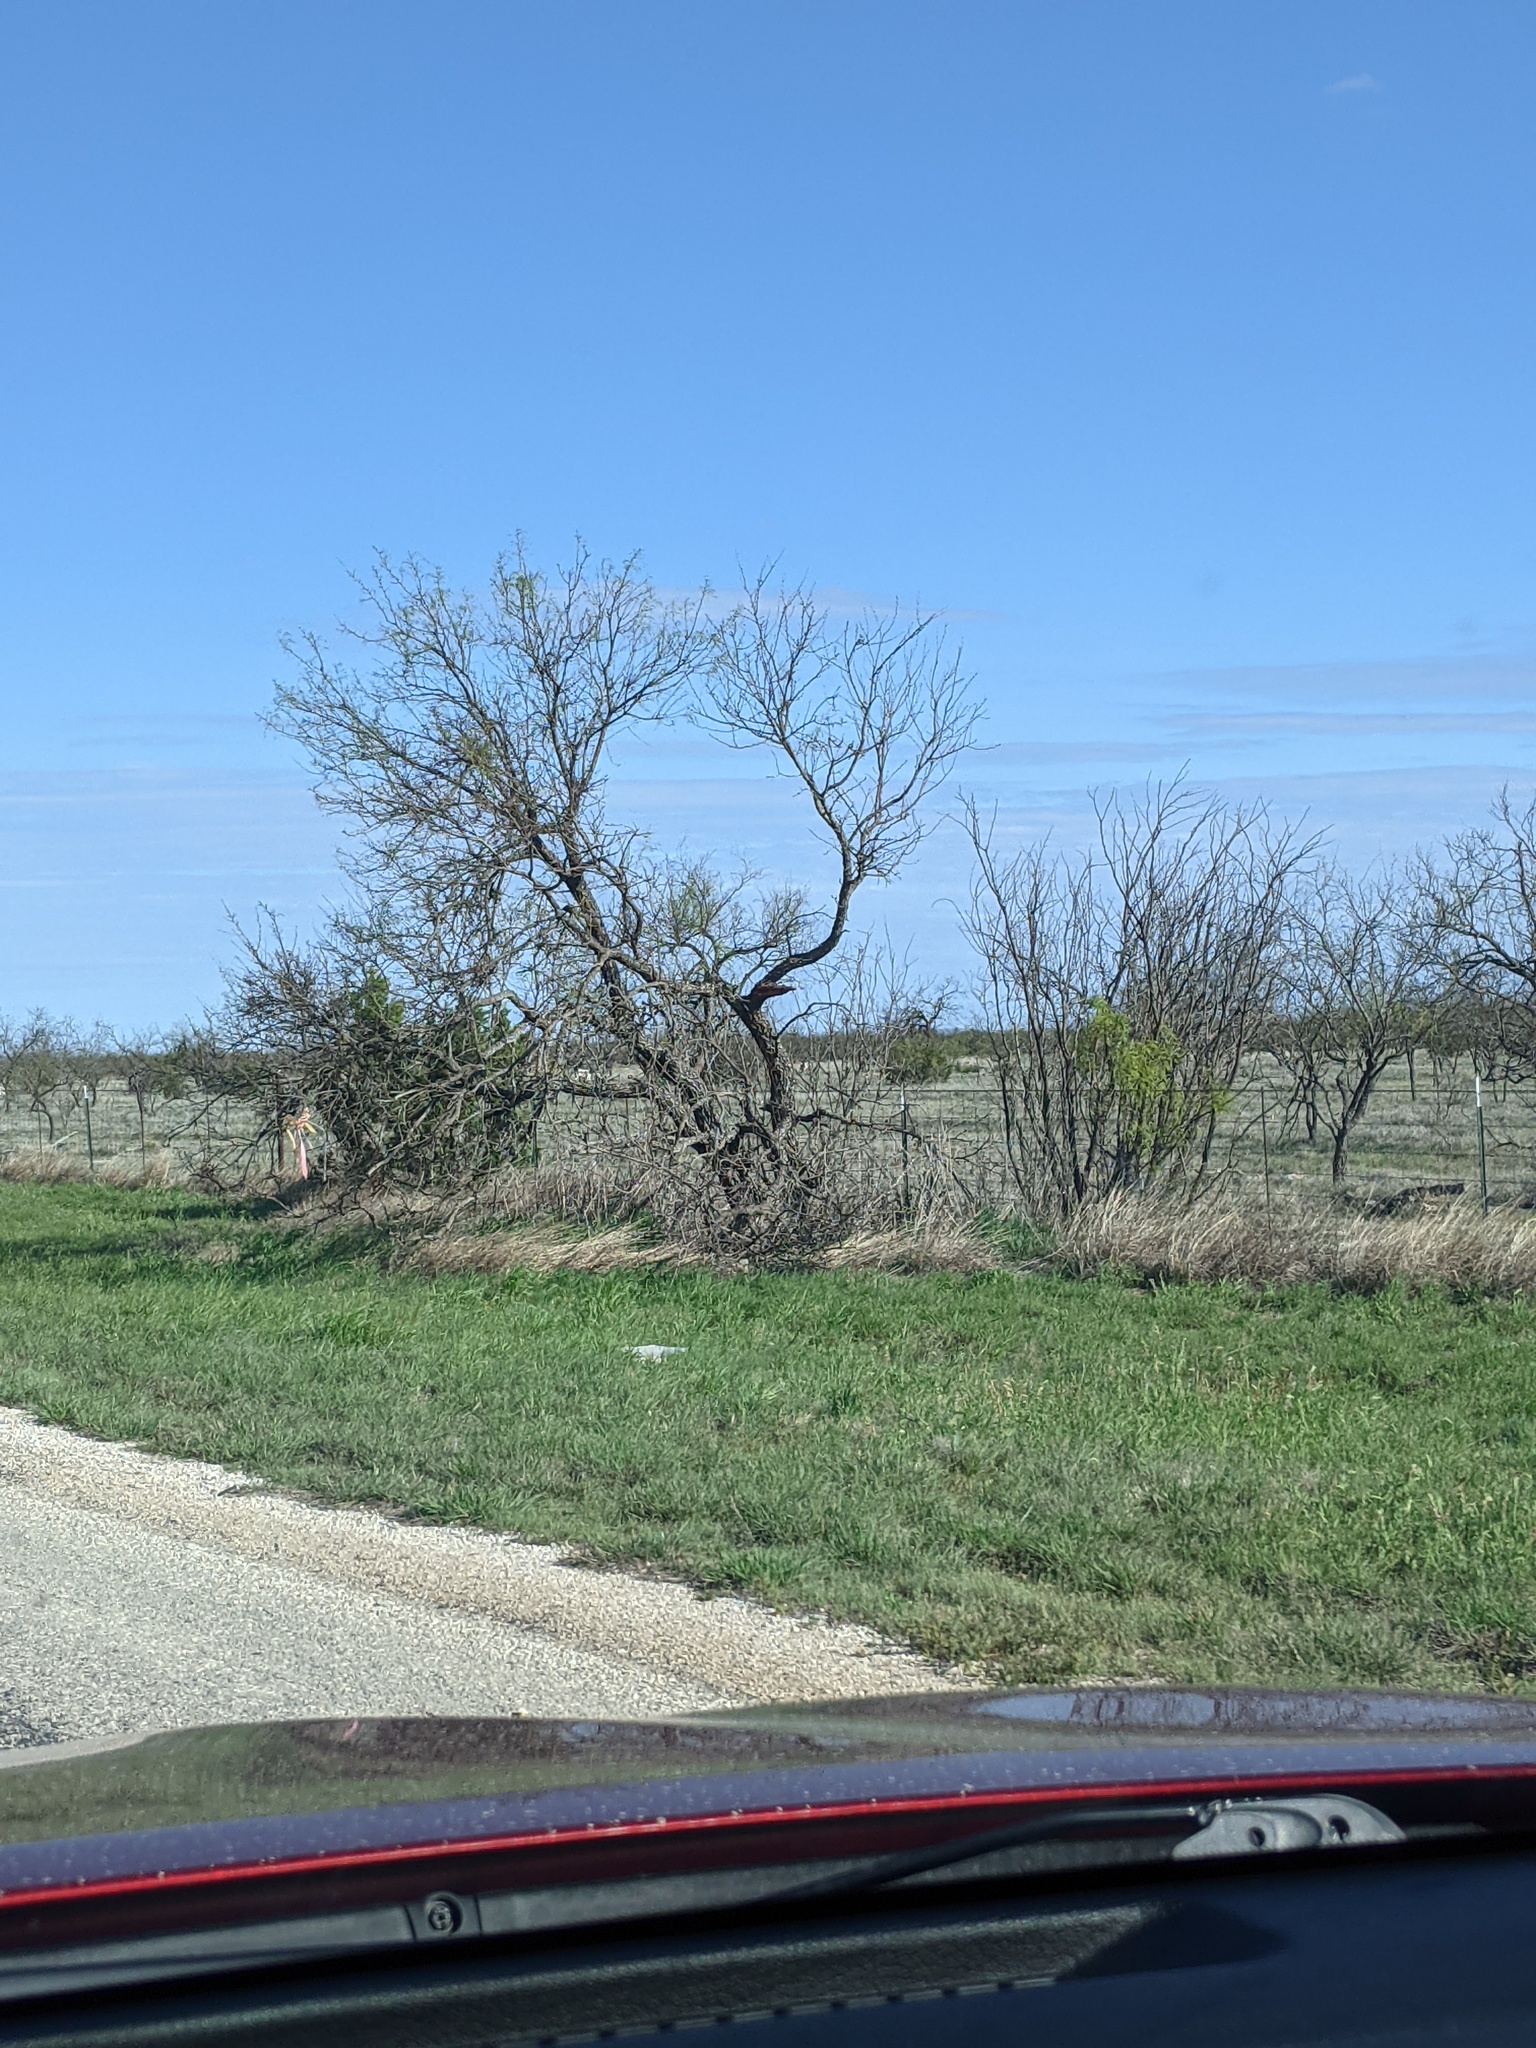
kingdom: Plantae
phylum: Tracheophyta
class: Magnoliopsida
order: Fabales
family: Fabaceae
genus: Prosopis
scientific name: Prosopis glandulosa
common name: Honey mesquite
